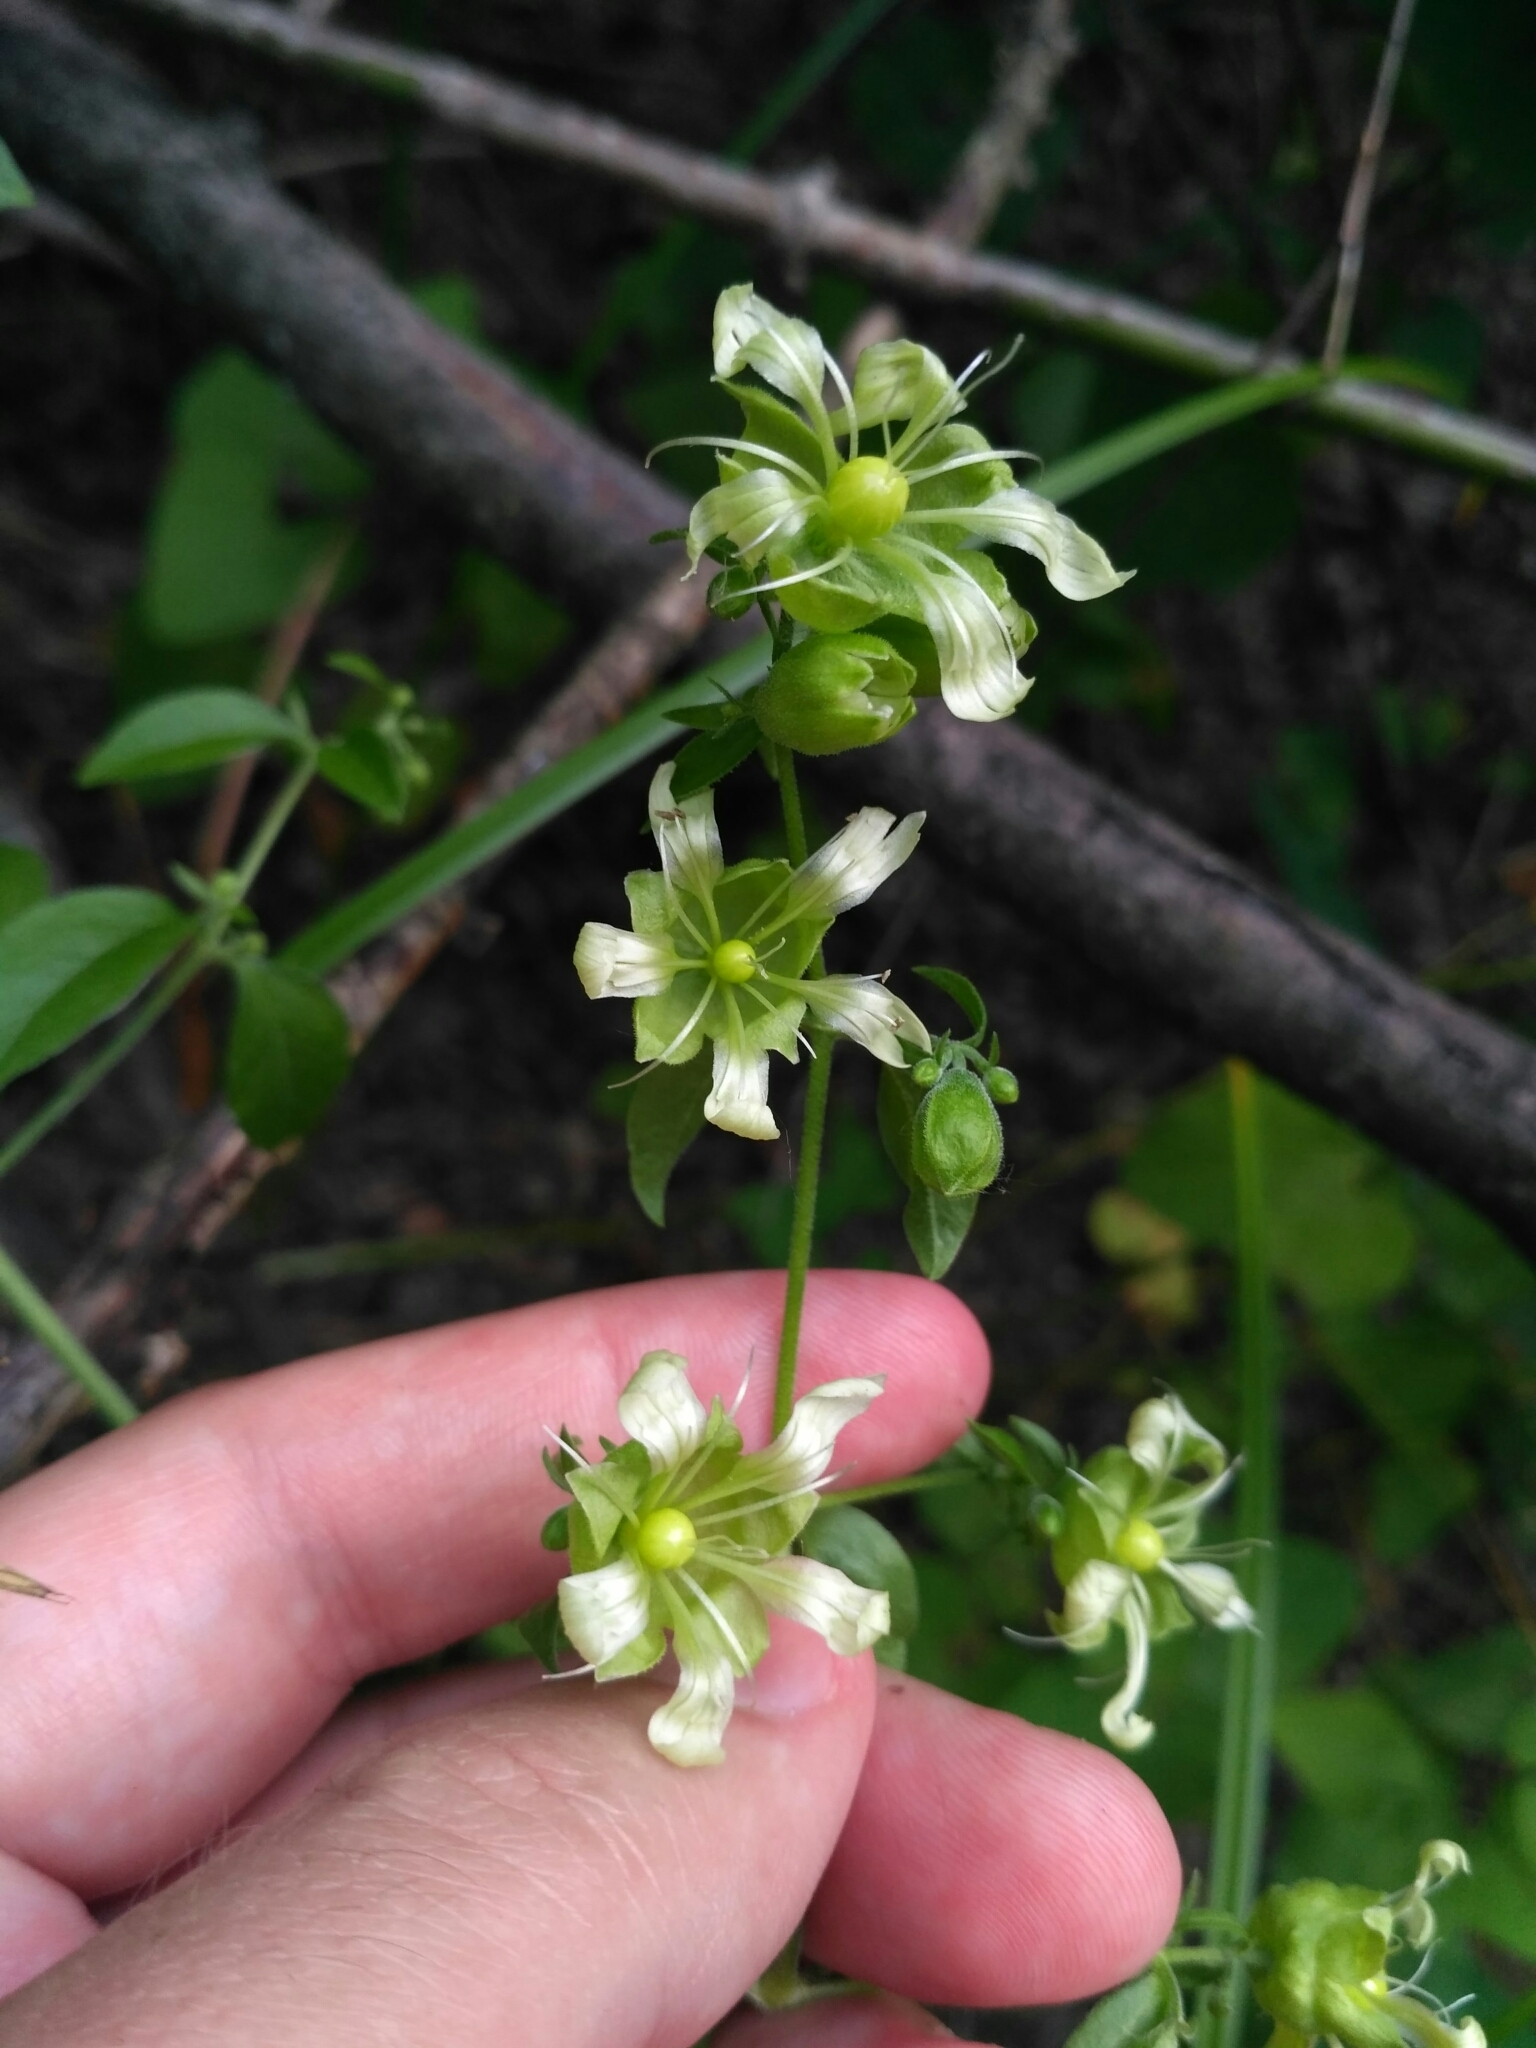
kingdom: Plantae
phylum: Tracheophyta
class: Magnoliopsida
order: Caryophyllales
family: Caryophyllaceae
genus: Silene
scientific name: Silene baccifera
